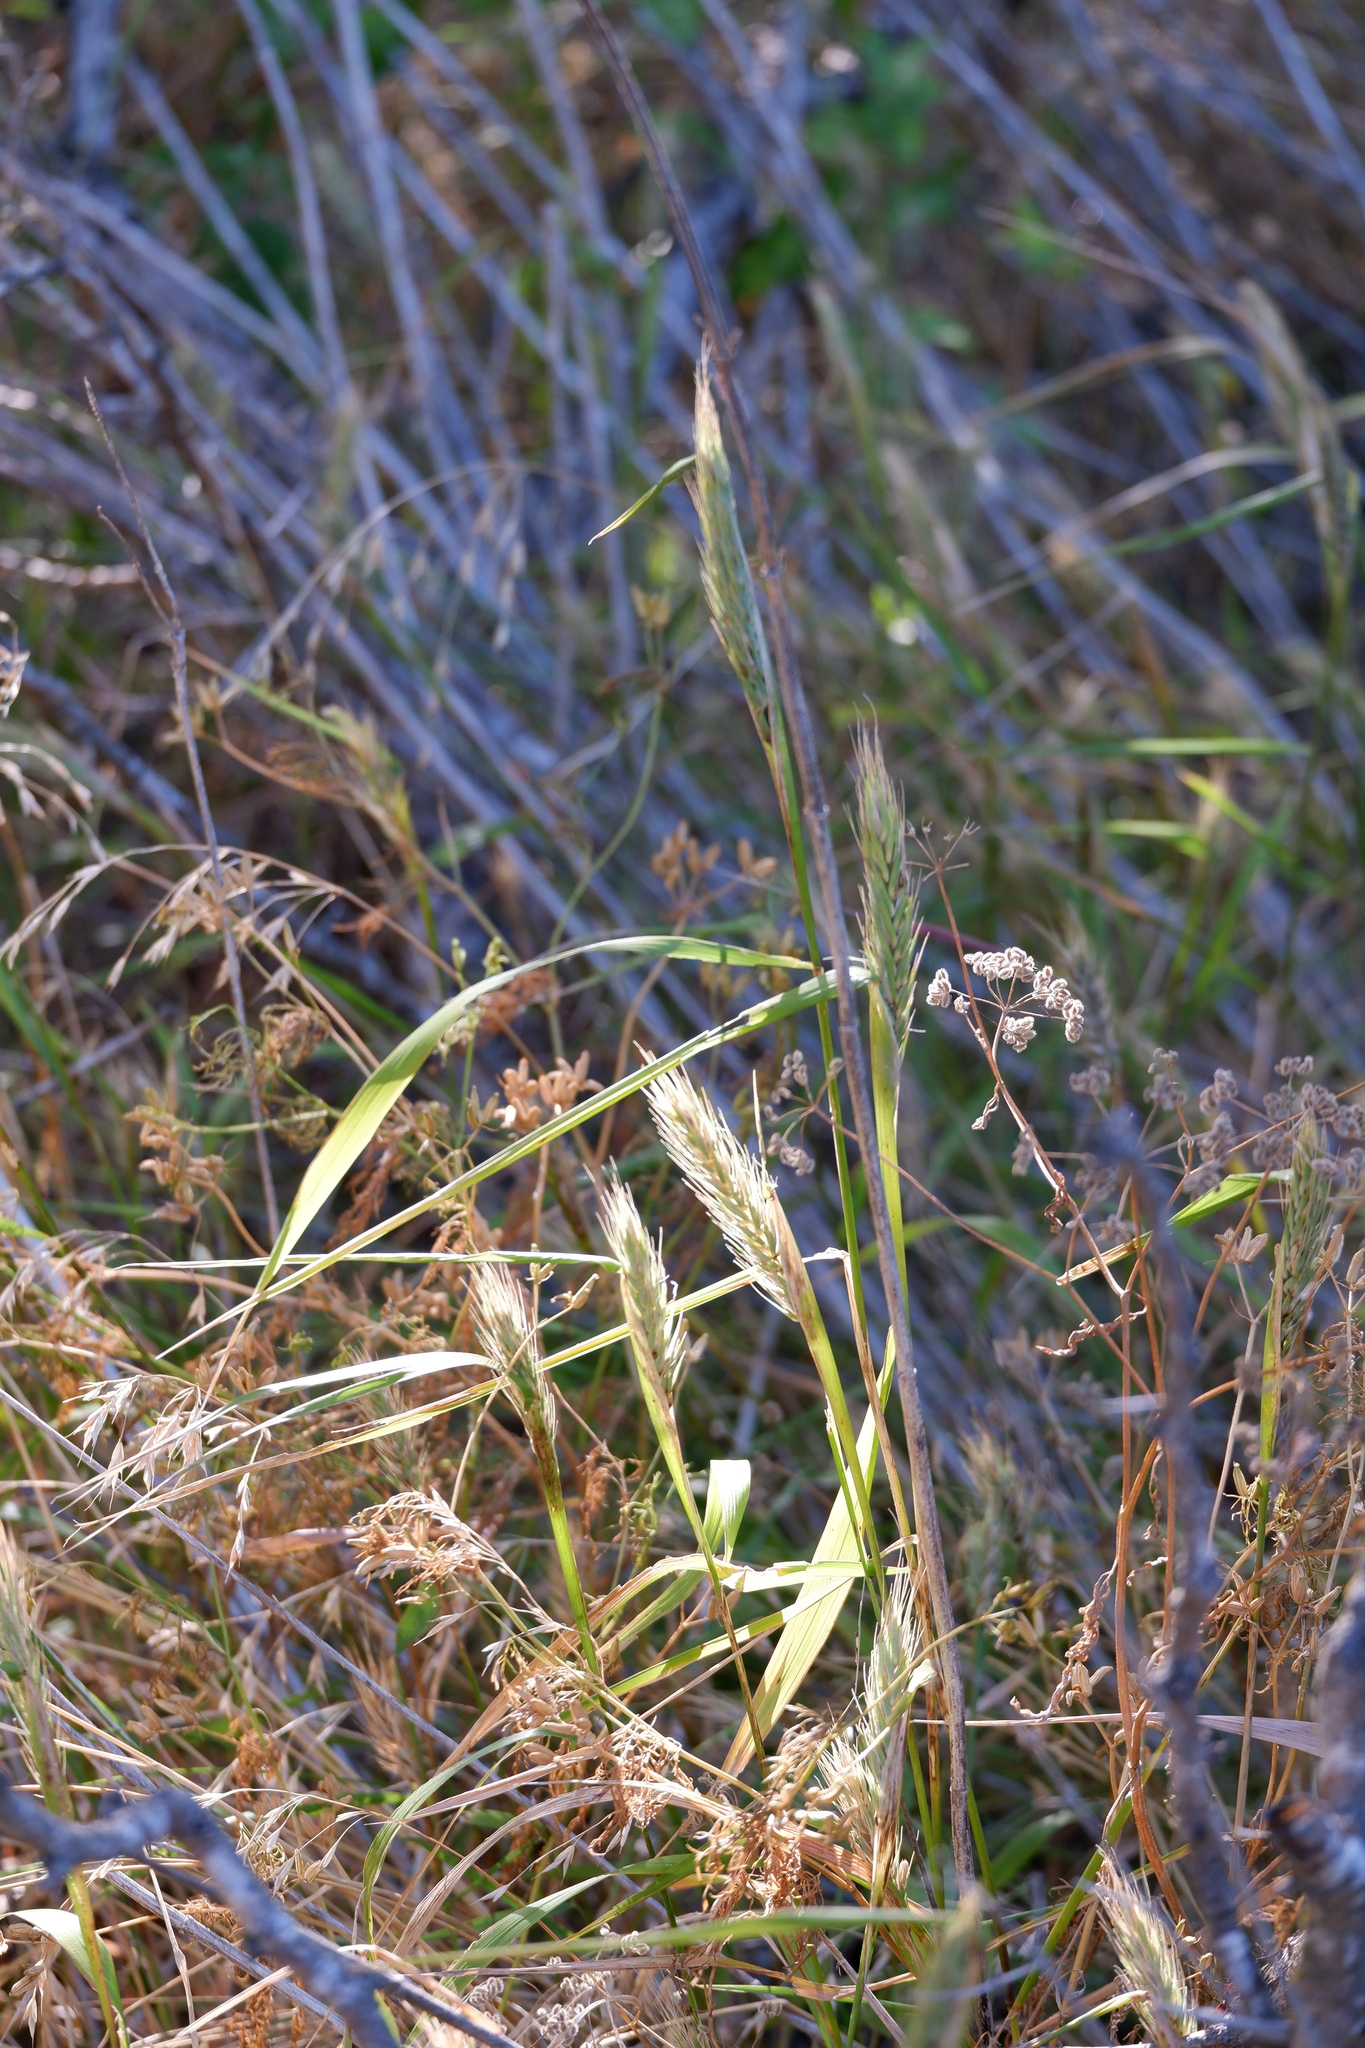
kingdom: Plantae
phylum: Tracheophyta
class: Liliopsida
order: Poales
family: Poaceae
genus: Elymus
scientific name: Elymus virginicus
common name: Common eastern wildrye
